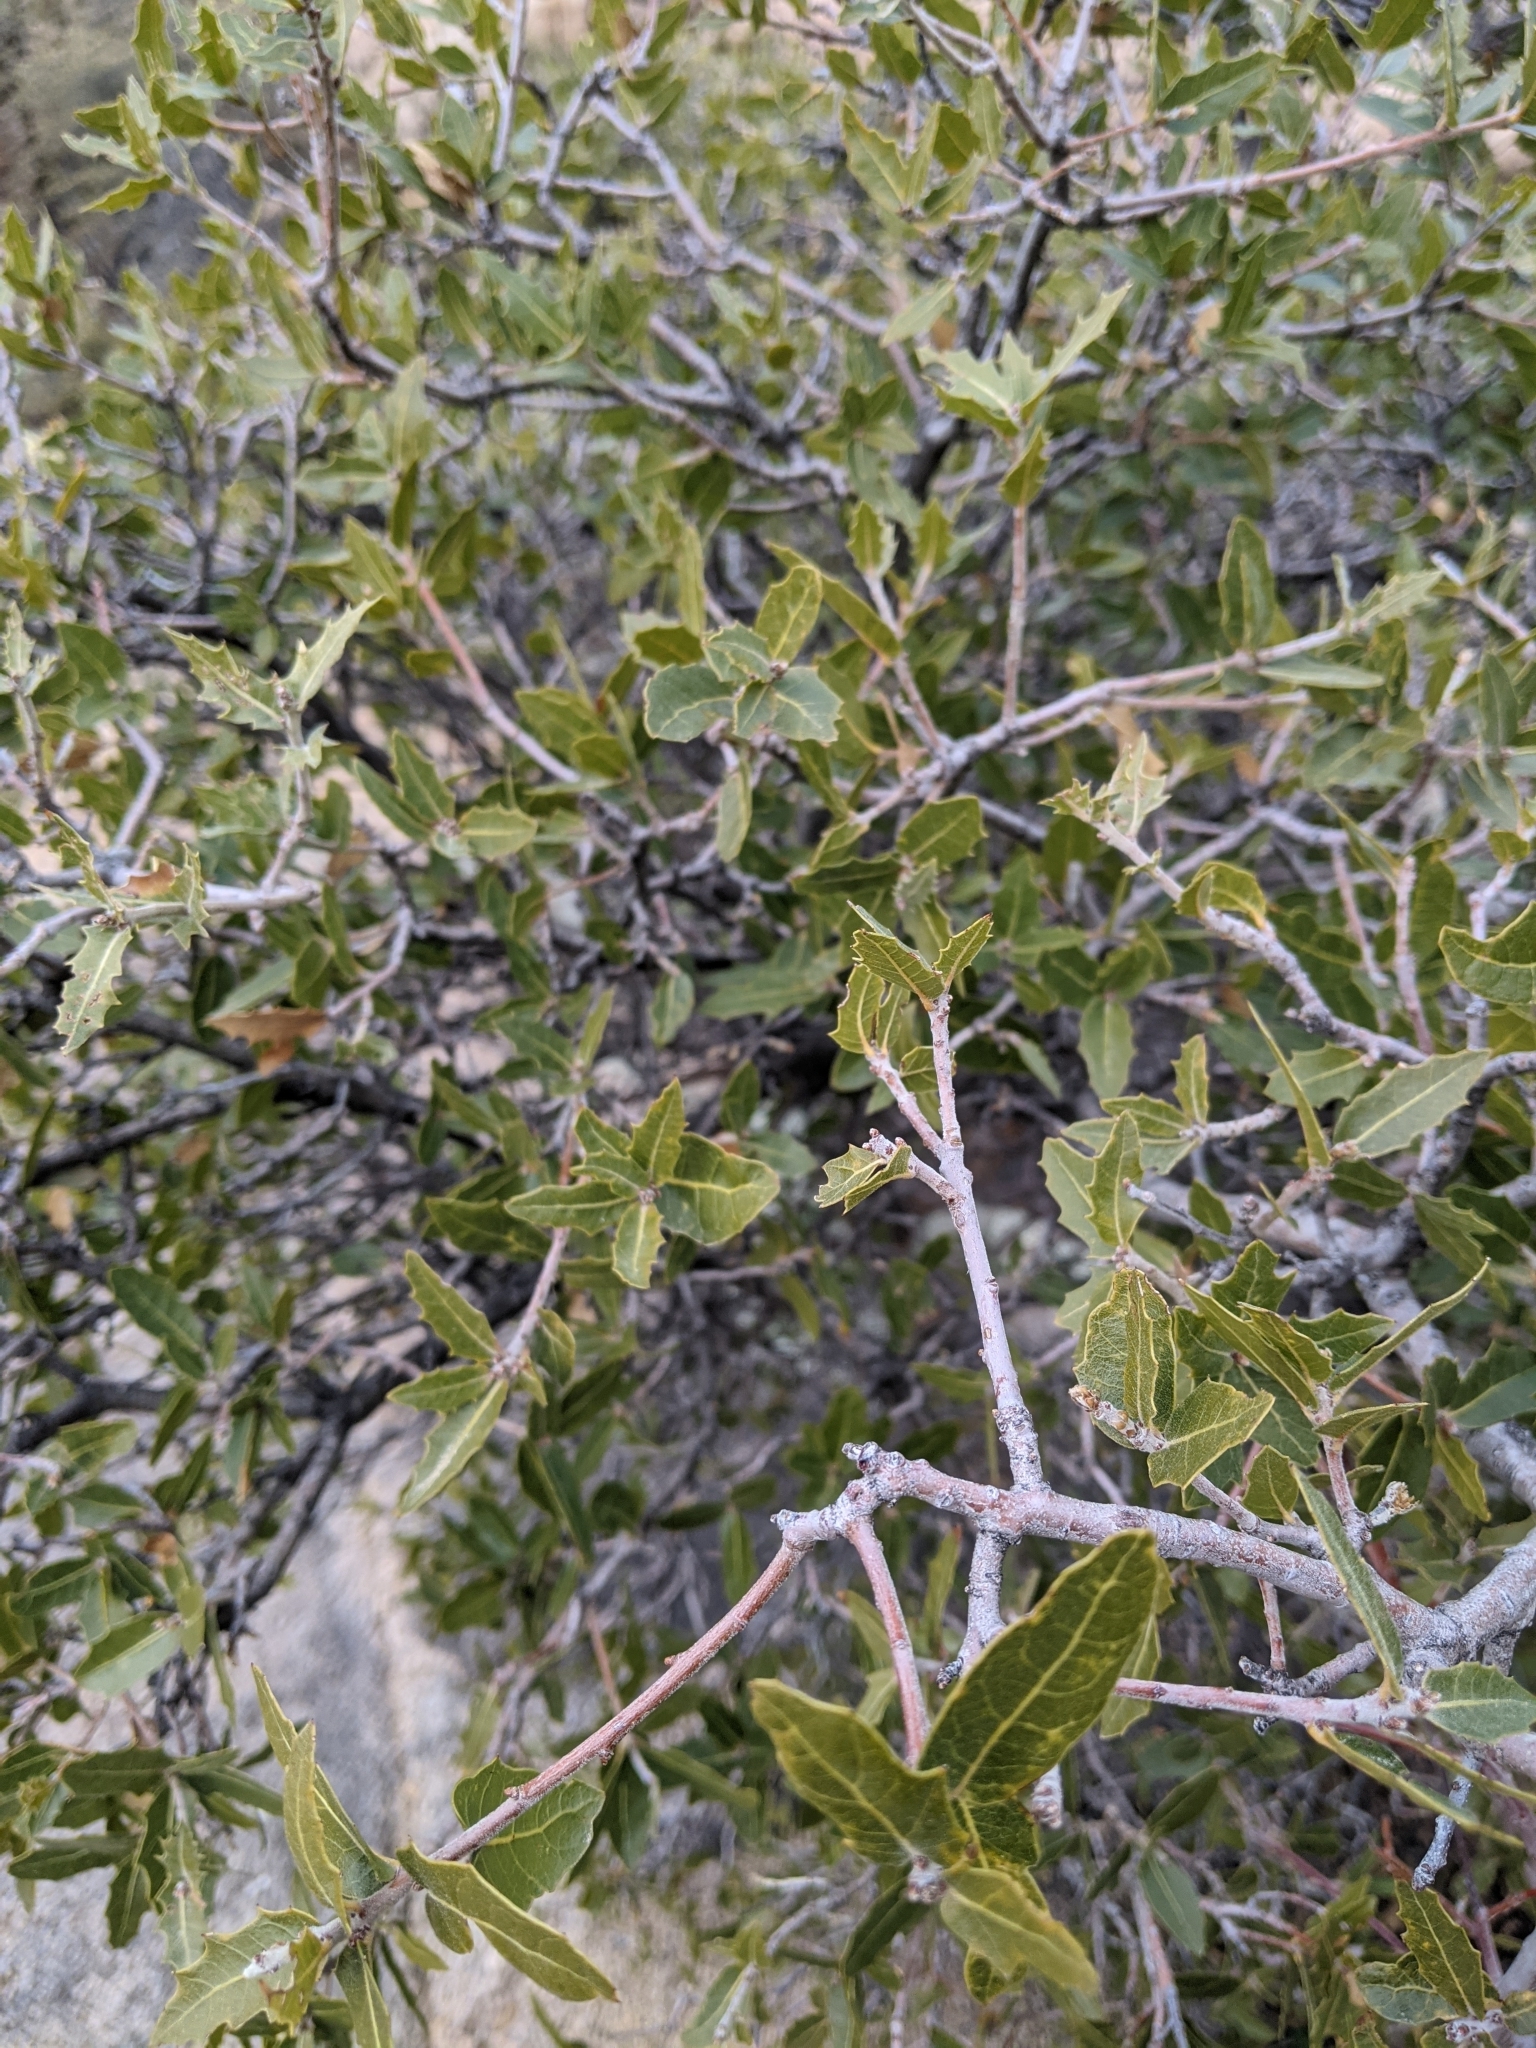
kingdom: Plantae
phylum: Tracheophyta
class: Magnoliopsida
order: Fagales
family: Fagaceae
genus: Quercus
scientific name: Quercus emoryi
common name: Emory oak
